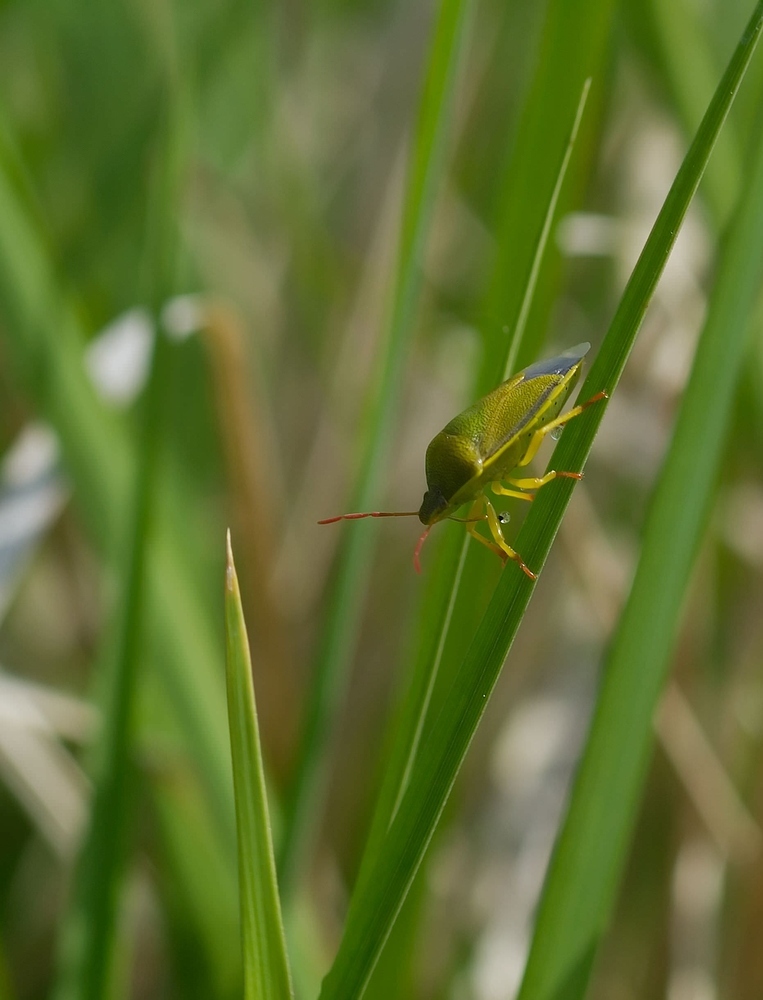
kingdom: Animalia
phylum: Arthropoda
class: Insecta
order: Hemiptera
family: Pentatomidae
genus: Piezodorus
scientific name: Piezodorus lituratus
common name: Stink bug
